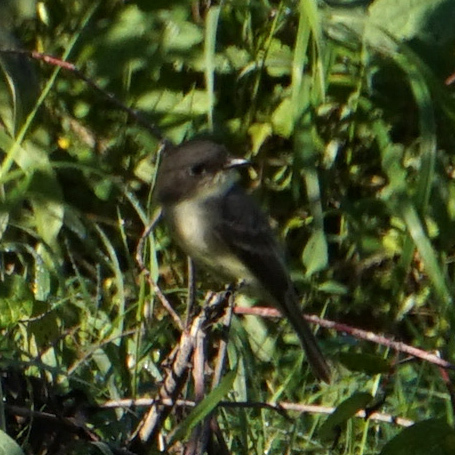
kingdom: Animalia
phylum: Chordata
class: Aves
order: Passeriformes
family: Tyrannidae
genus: Sayornis
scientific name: Sayornis phoebe
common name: Eastern phoebe
